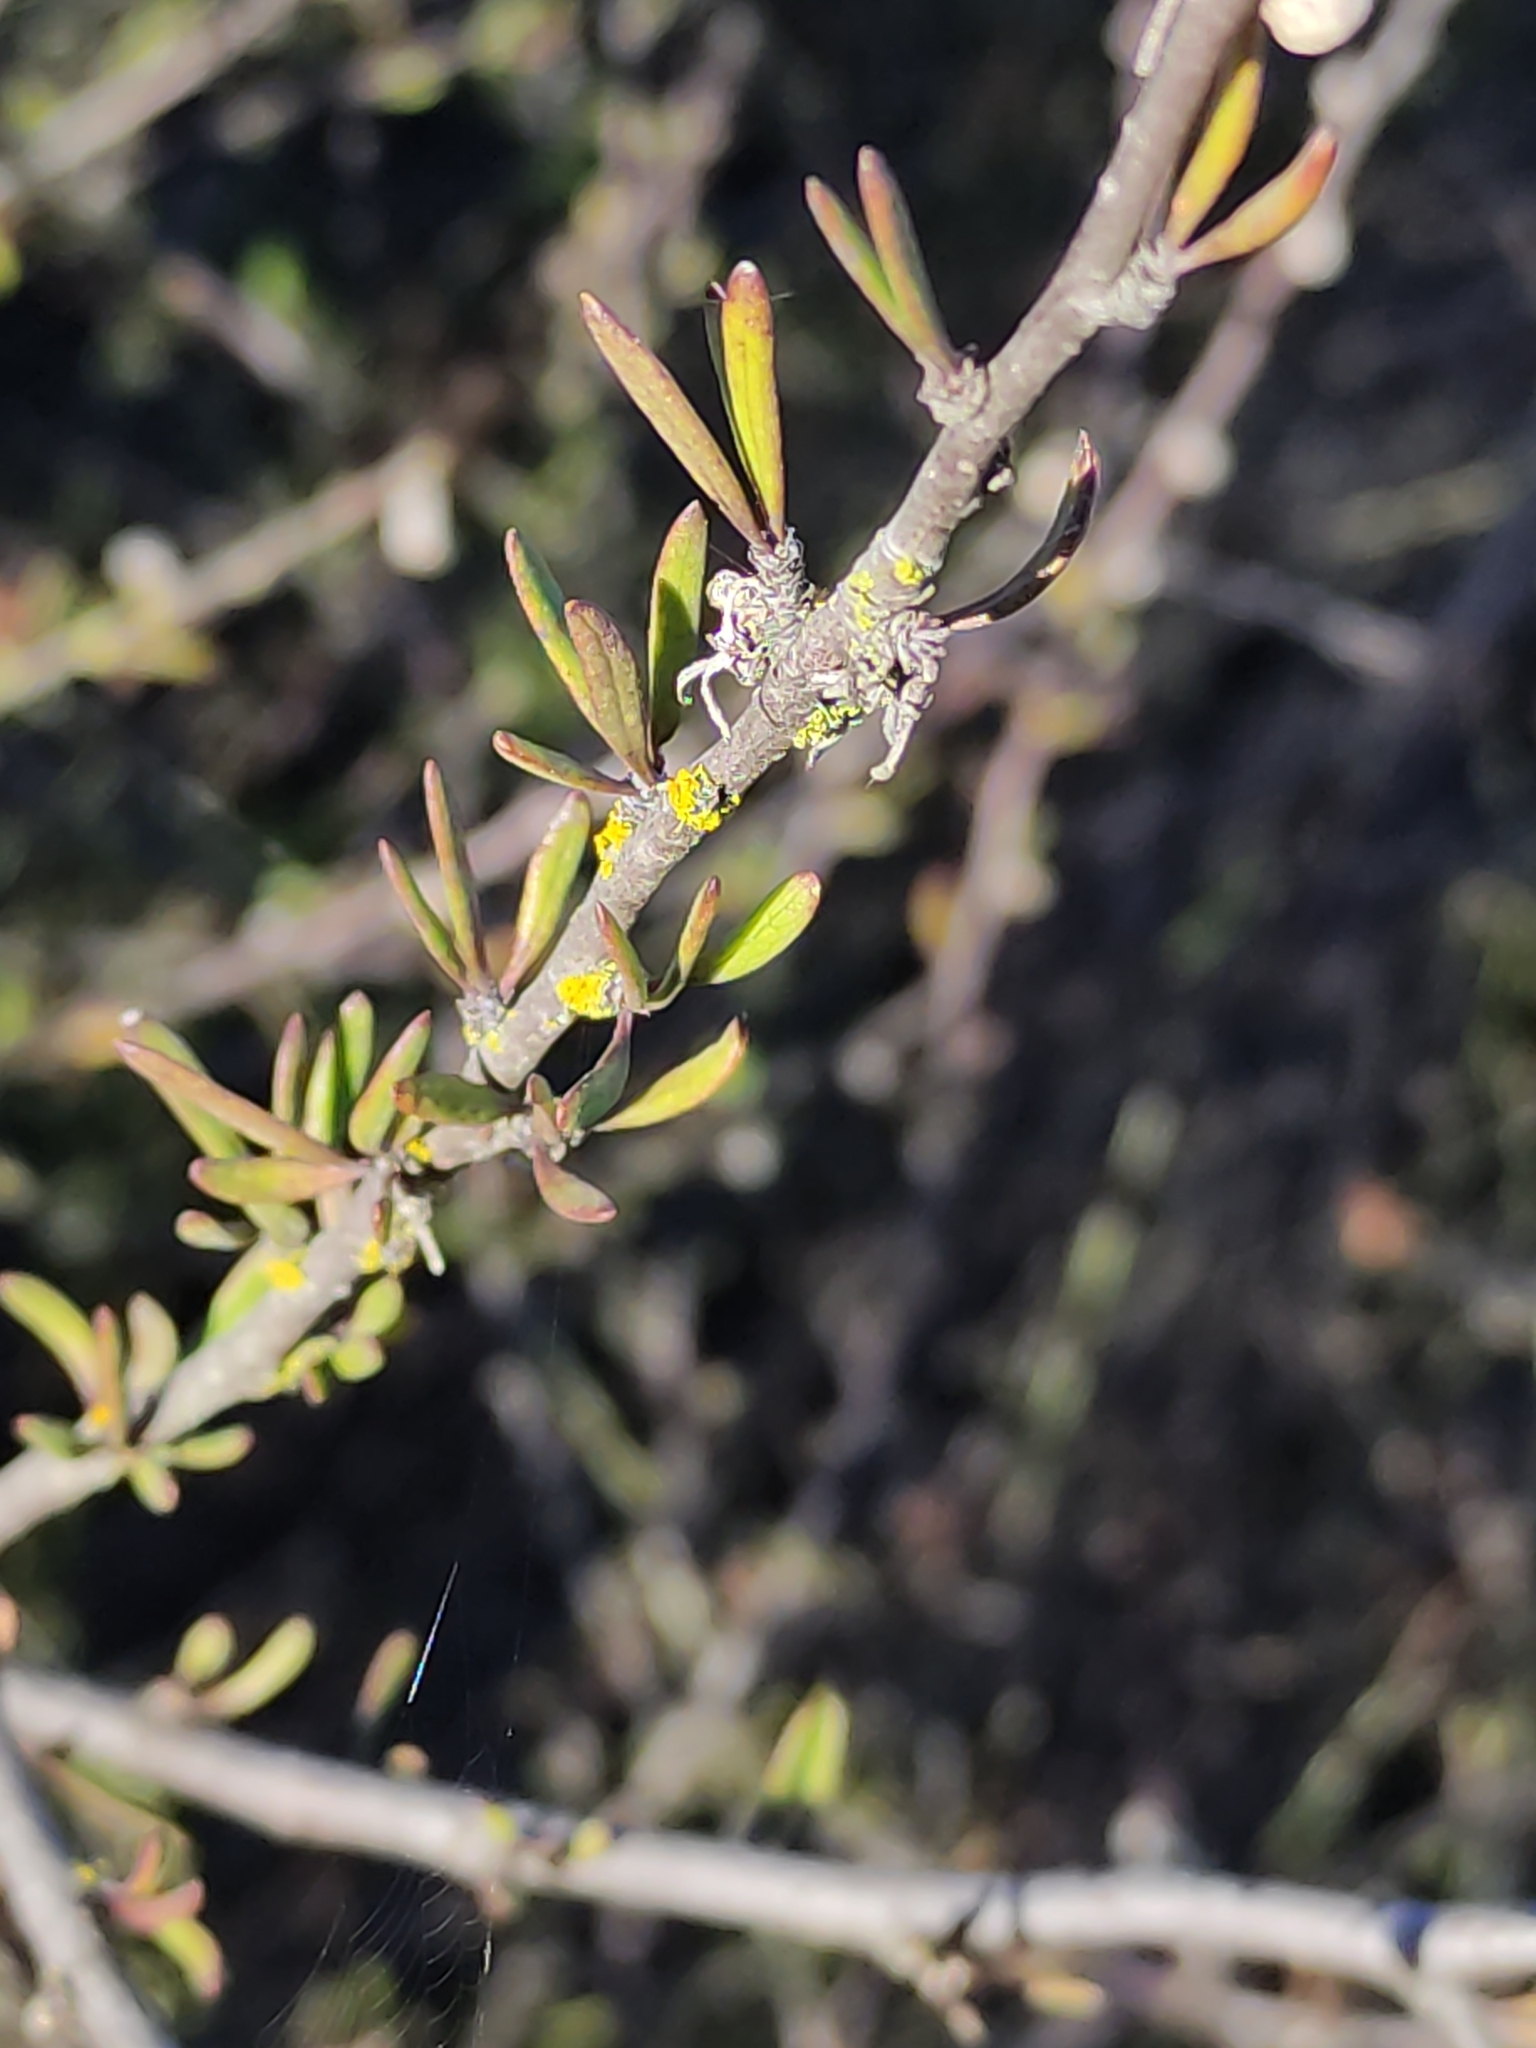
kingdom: Plantae
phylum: Tracheophyta
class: Magnoliopsida
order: Malvales
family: Malvaceae
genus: Plagianthus
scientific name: Plagianthus divaricatus
